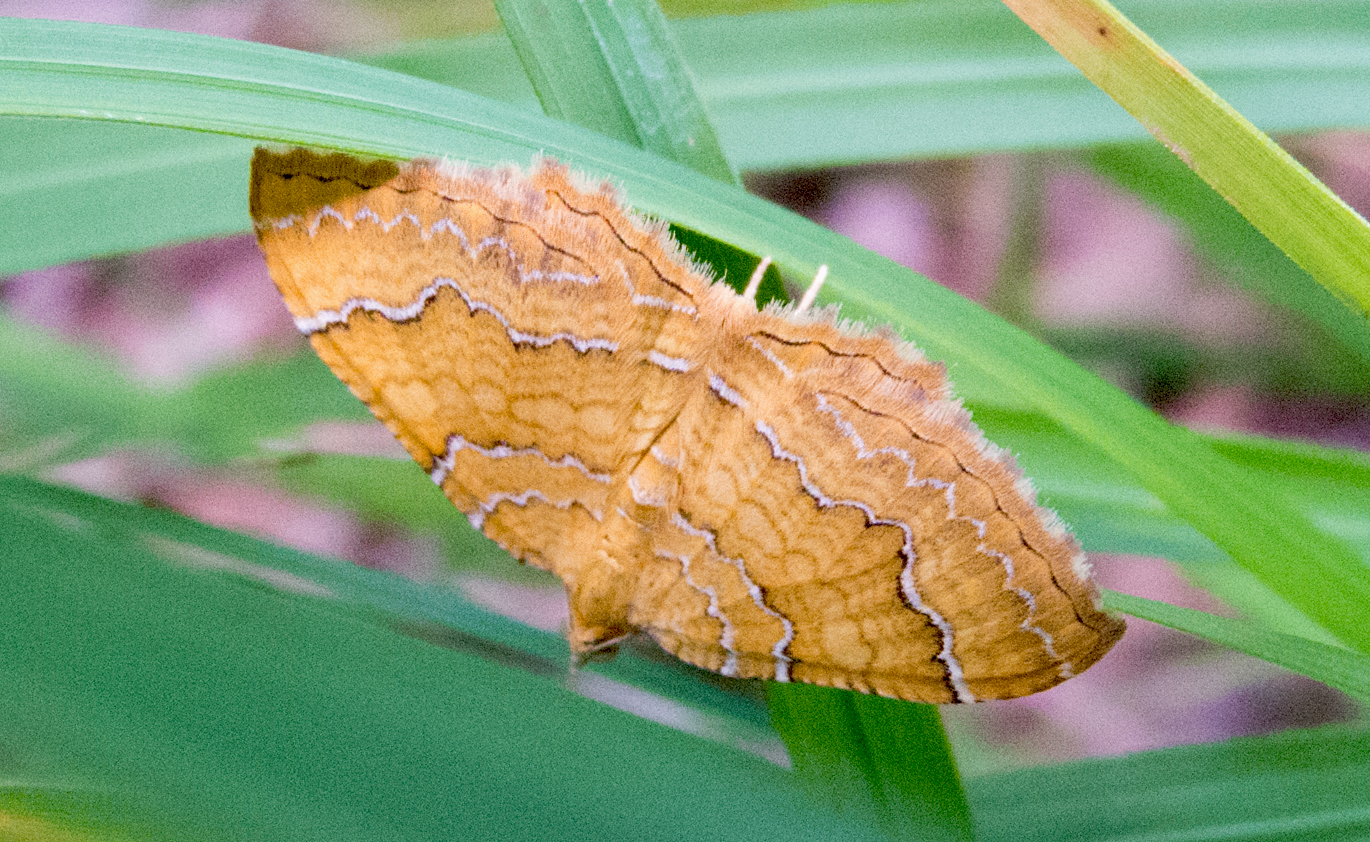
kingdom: Animalia
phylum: Arthropoda
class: Insecta
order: Lepidoptera
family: Geometridae
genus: Camptogramma
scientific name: Camptogramma bilineata
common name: Yellow shell
